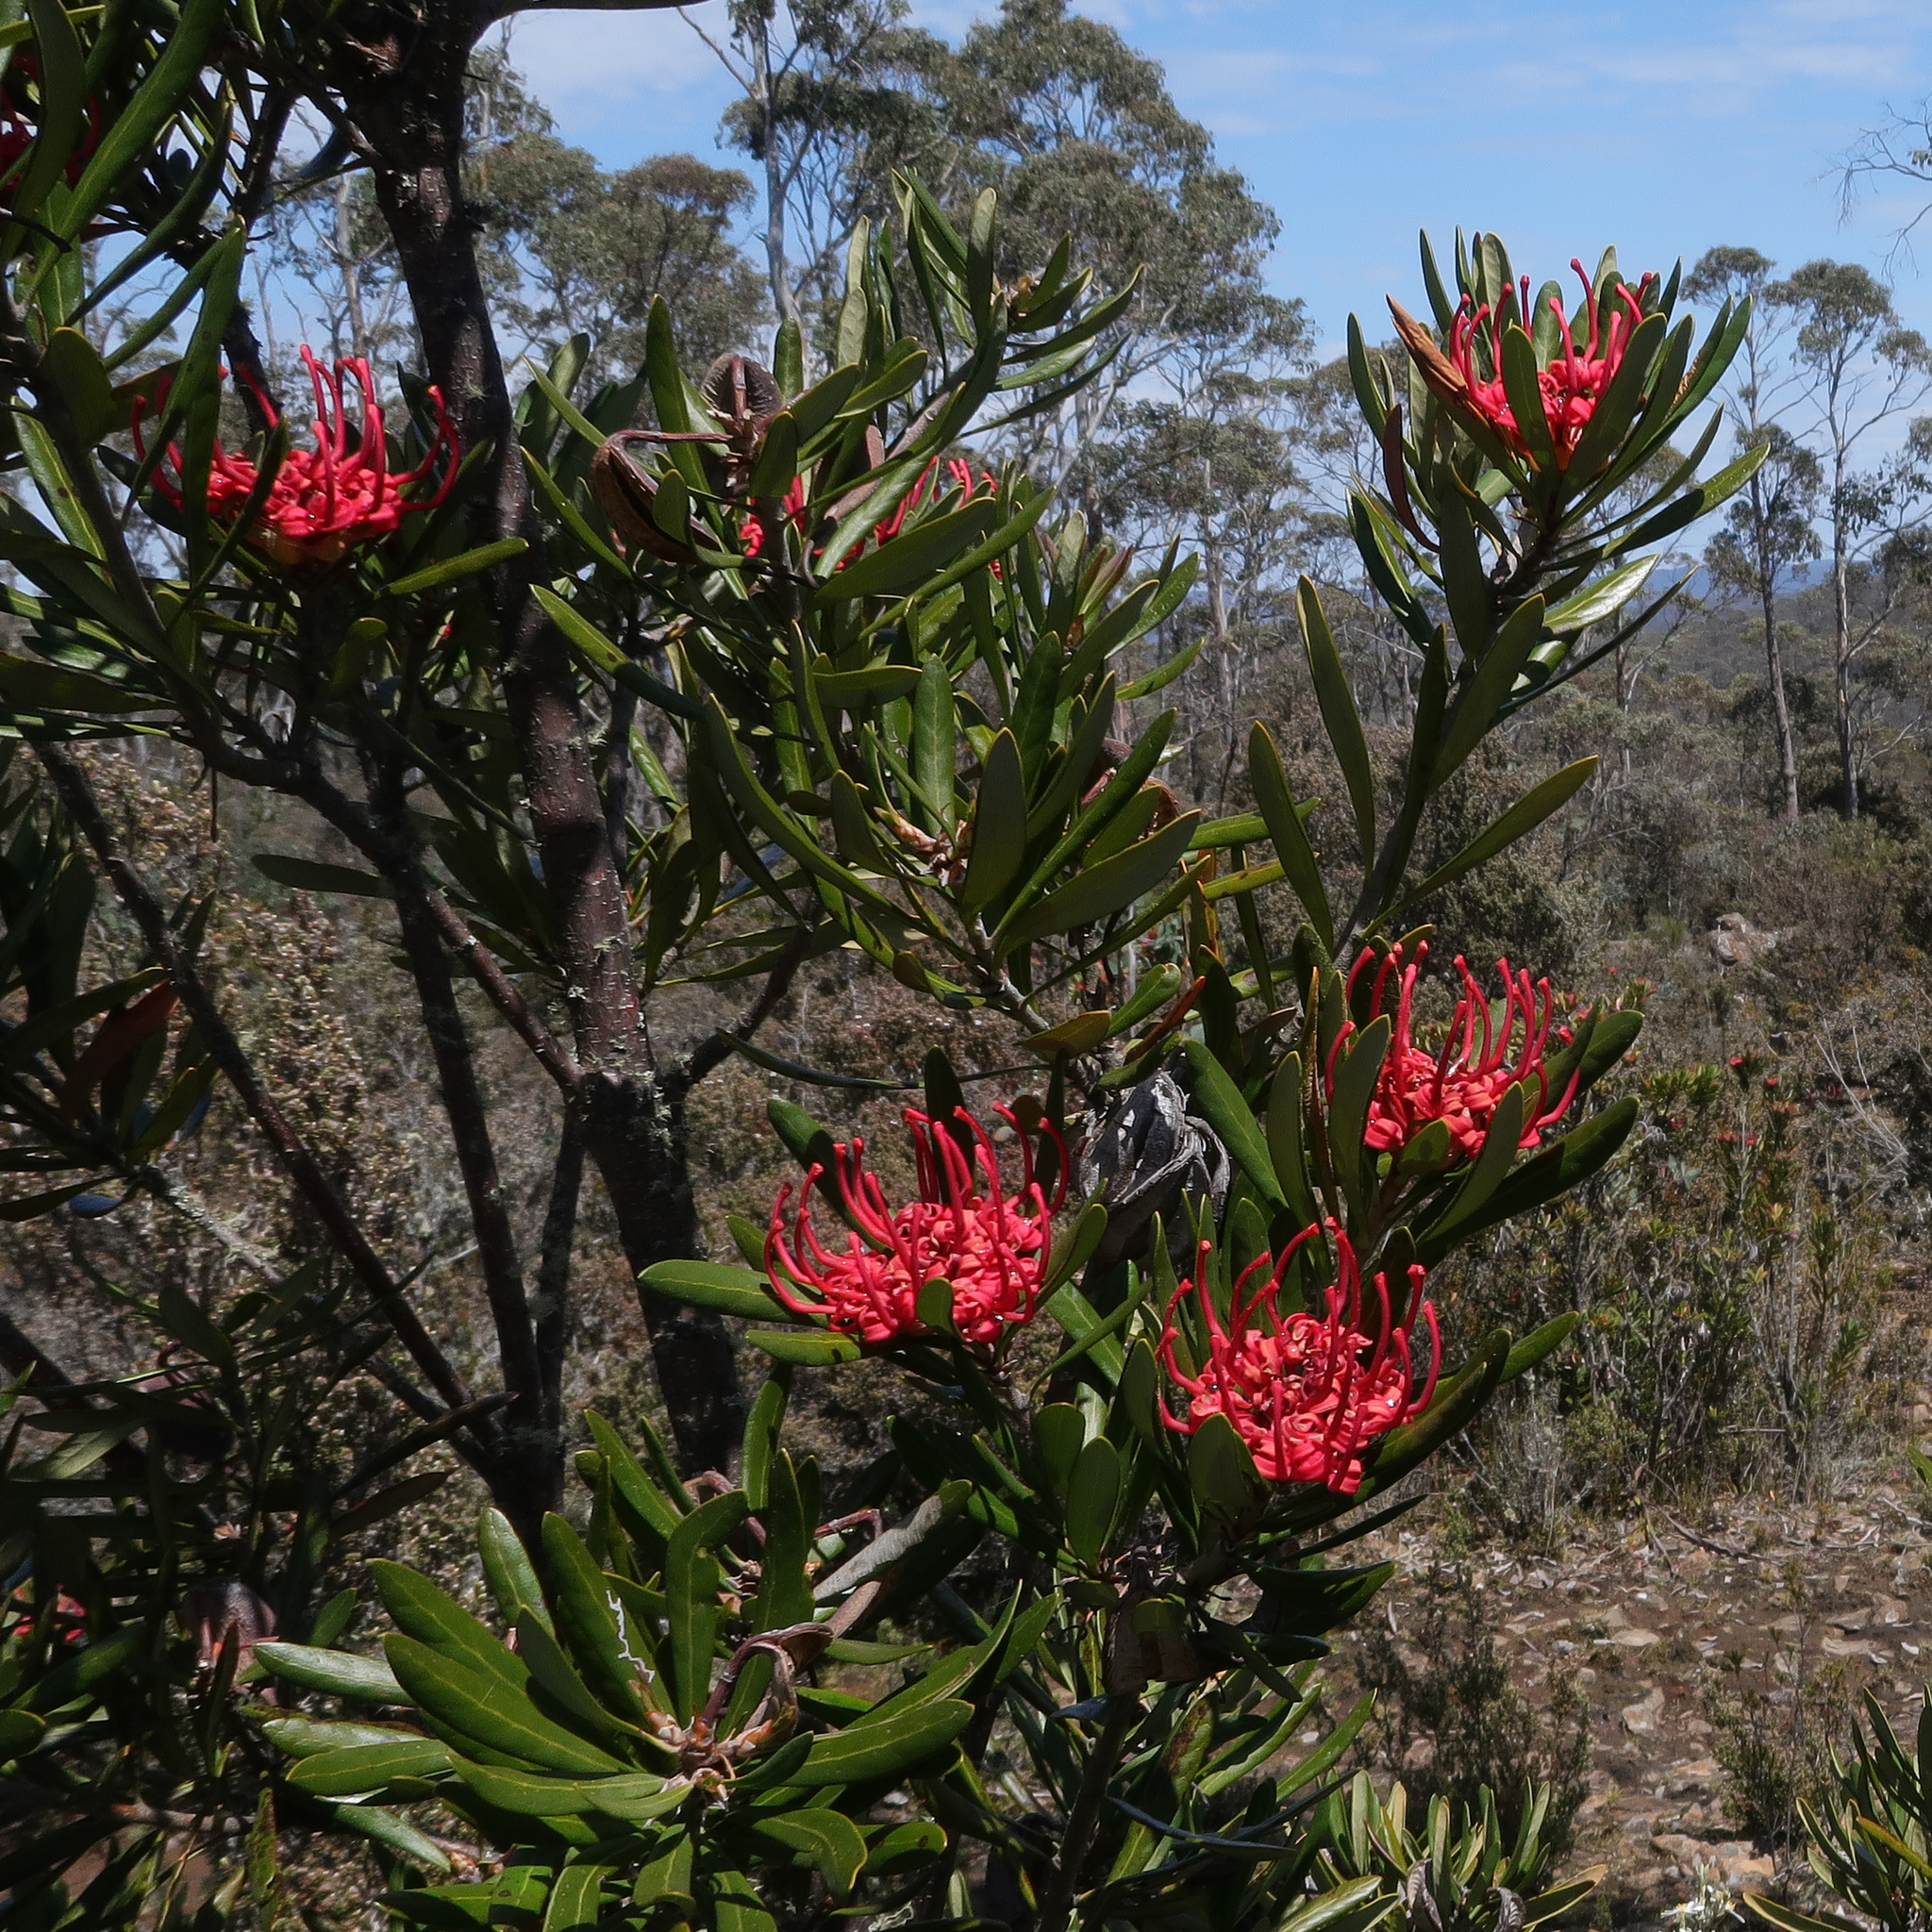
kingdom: Plantae
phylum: Tracheophyta
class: Magnoliopsida
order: Proteales
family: Proteaceae
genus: Telopea
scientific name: Telopea truncata
